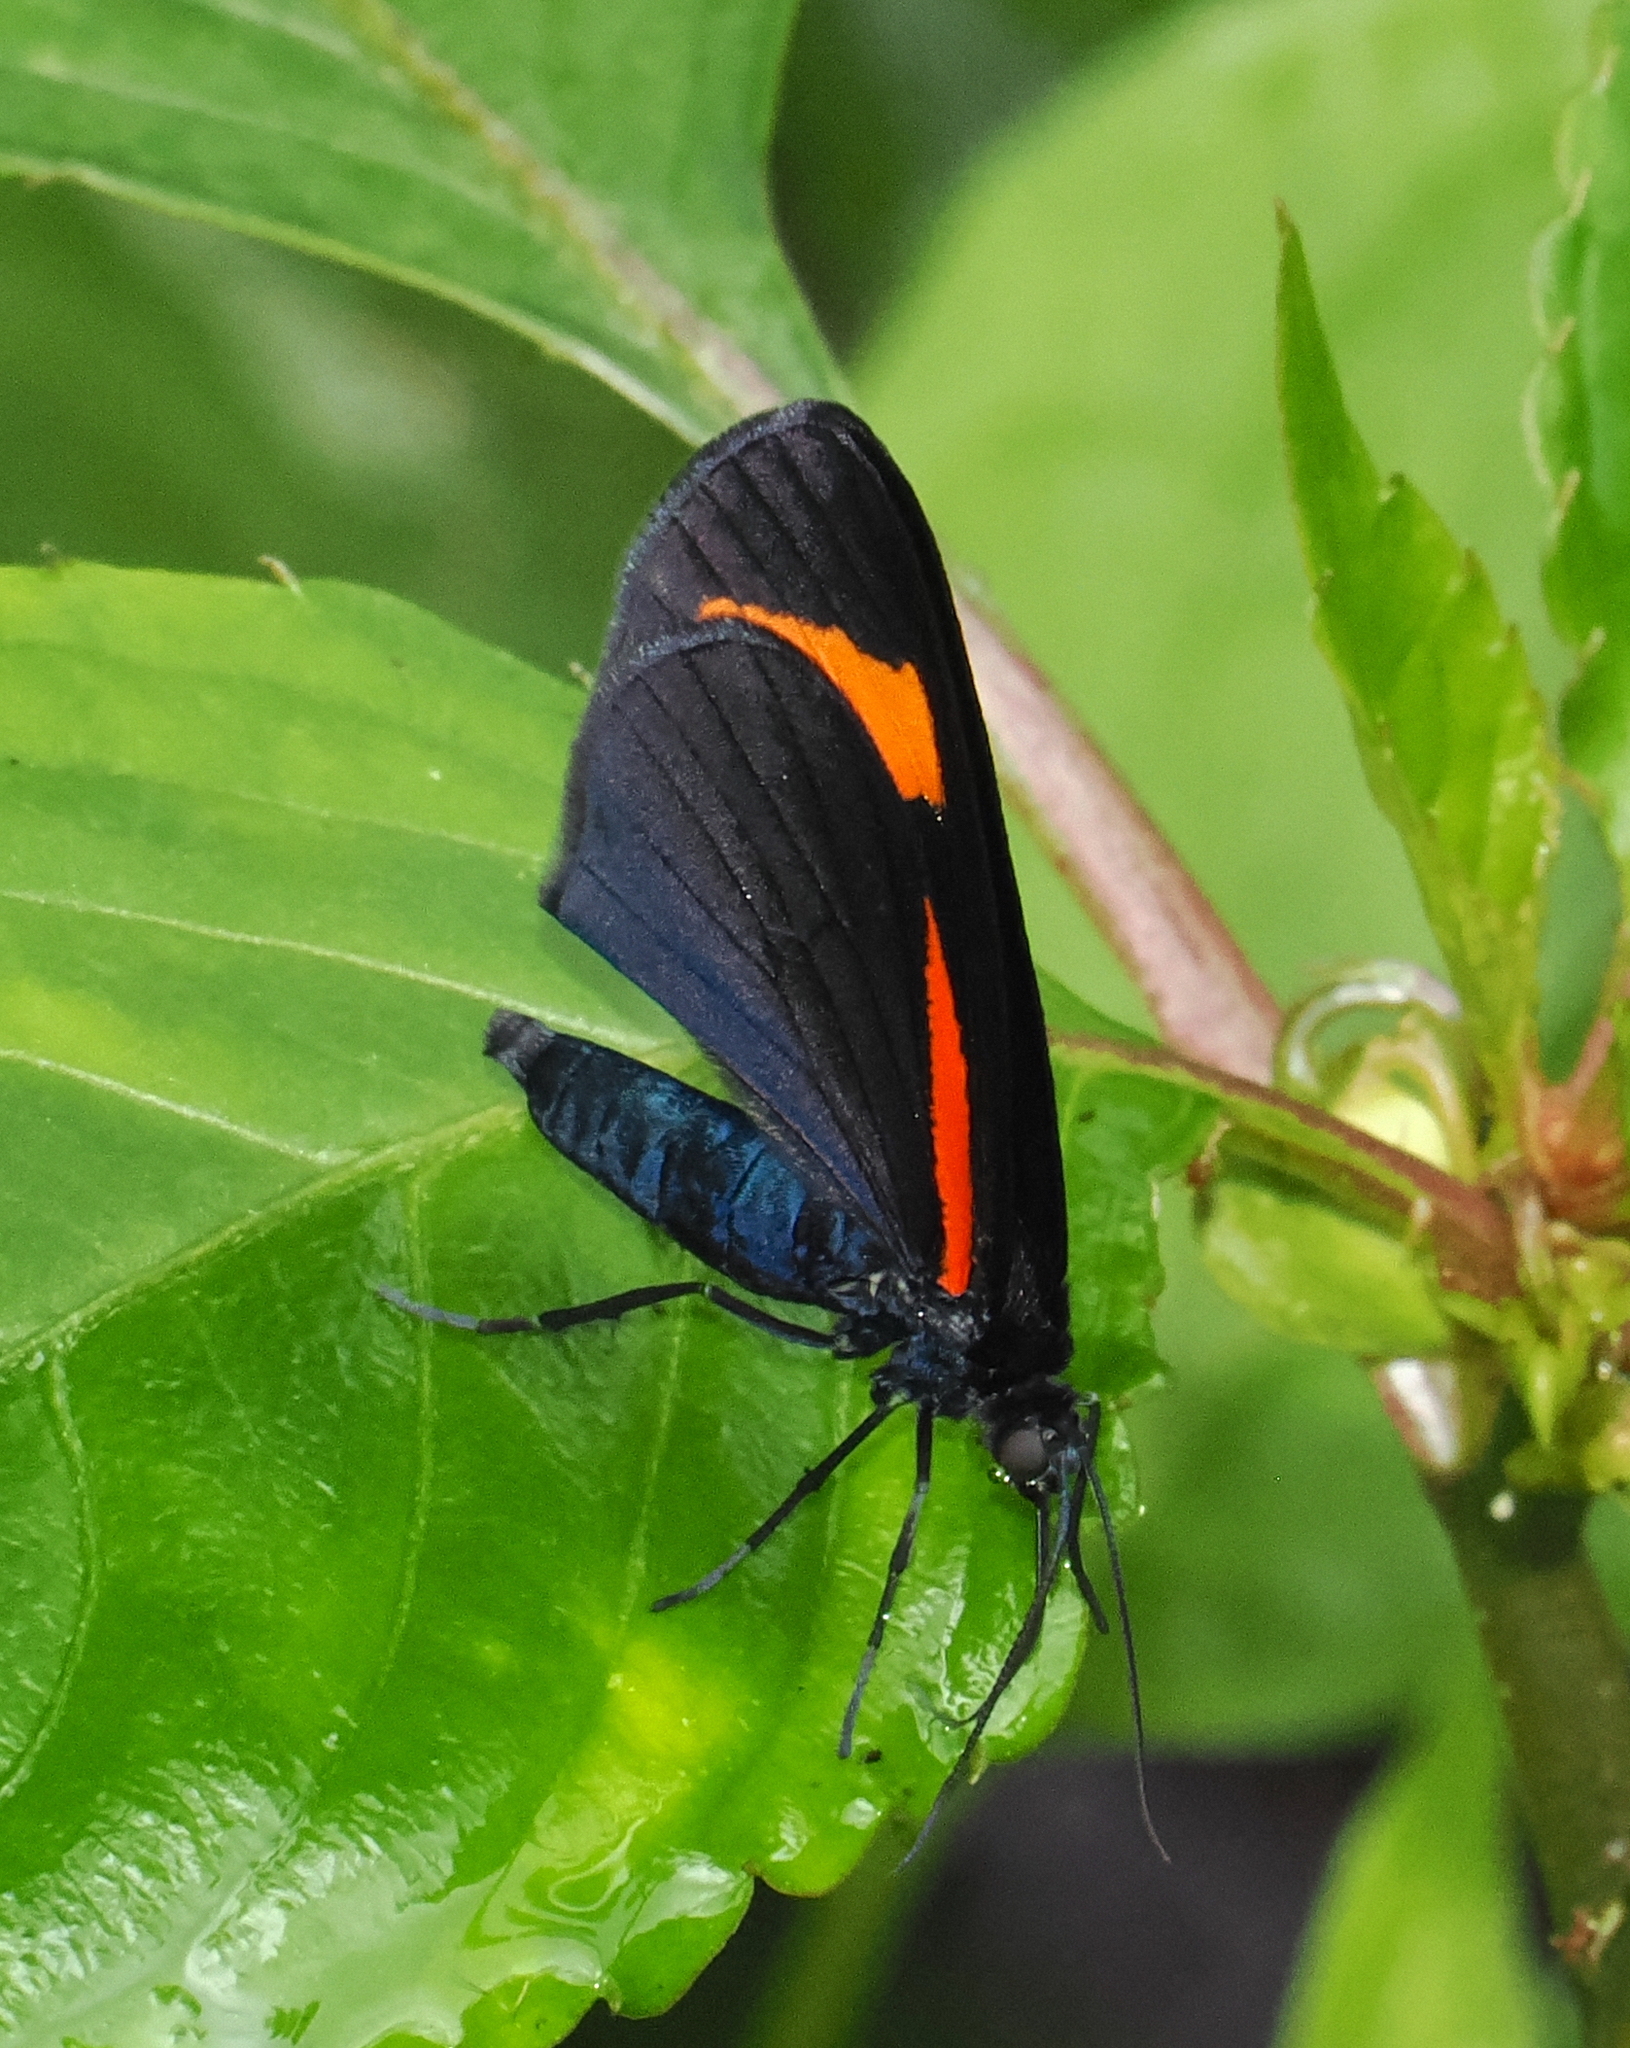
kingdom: Animalia
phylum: Arthropoda
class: Insecta
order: Lepidoptera
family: Geometridae
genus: Siosta
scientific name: Siosta bifasciata
